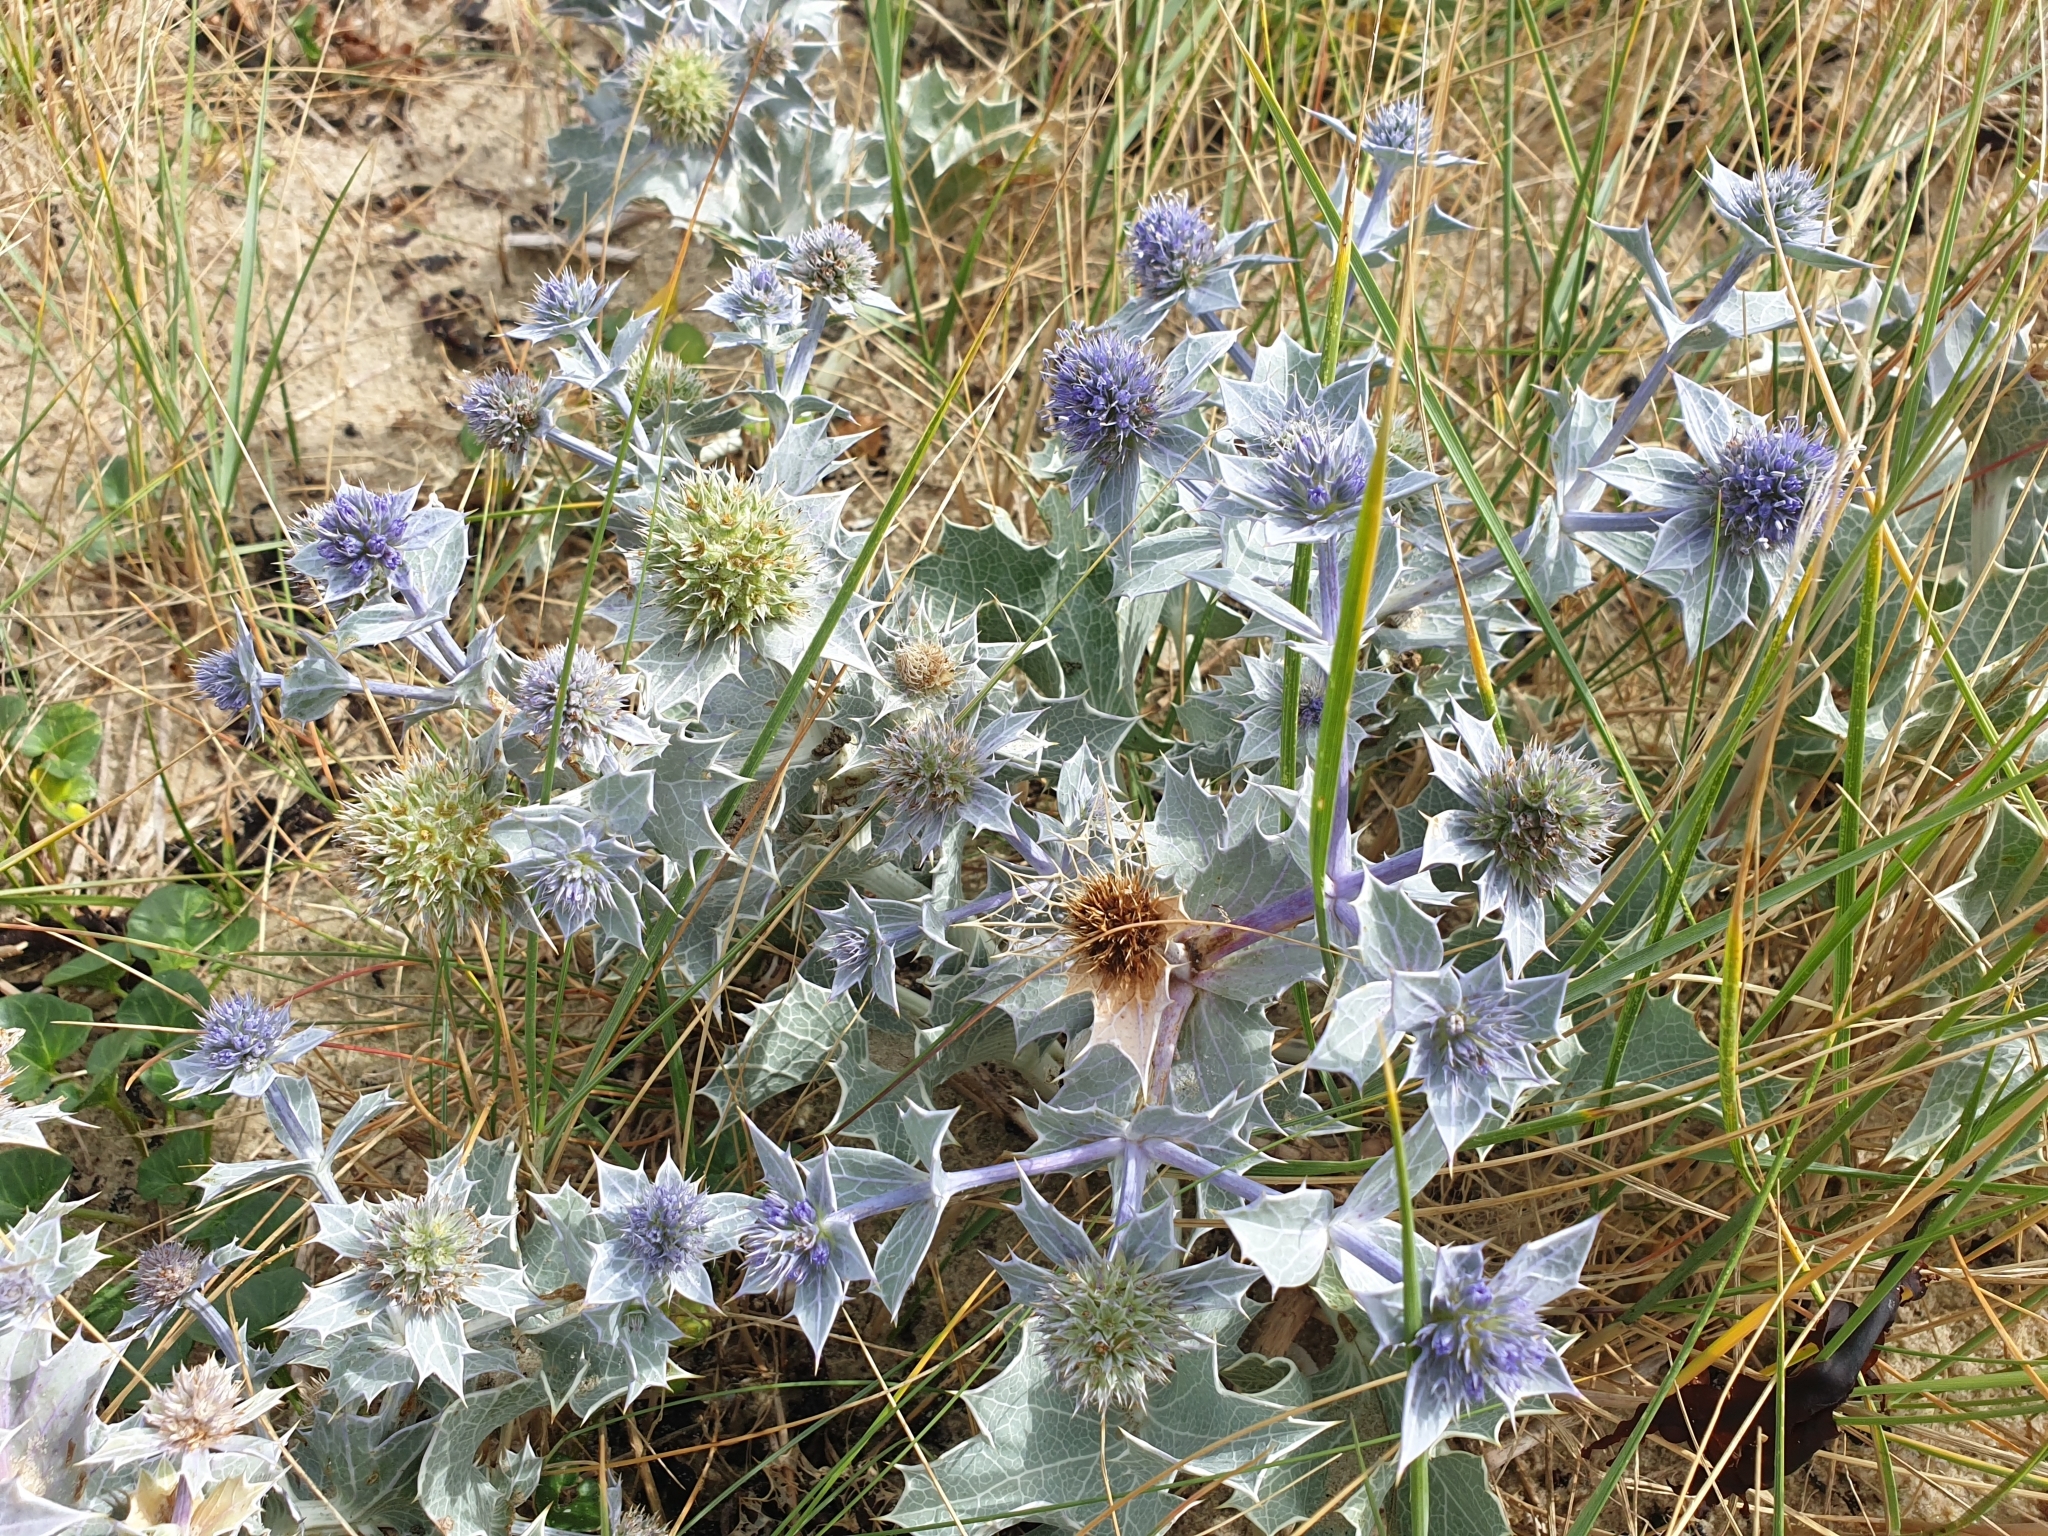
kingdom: Plantae
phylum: Tracheophyta
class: Magnoliopsida
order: Apiales
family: Apiaceae
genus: Eryngium
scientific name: Eryngium maritimum
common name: Sea-holly
